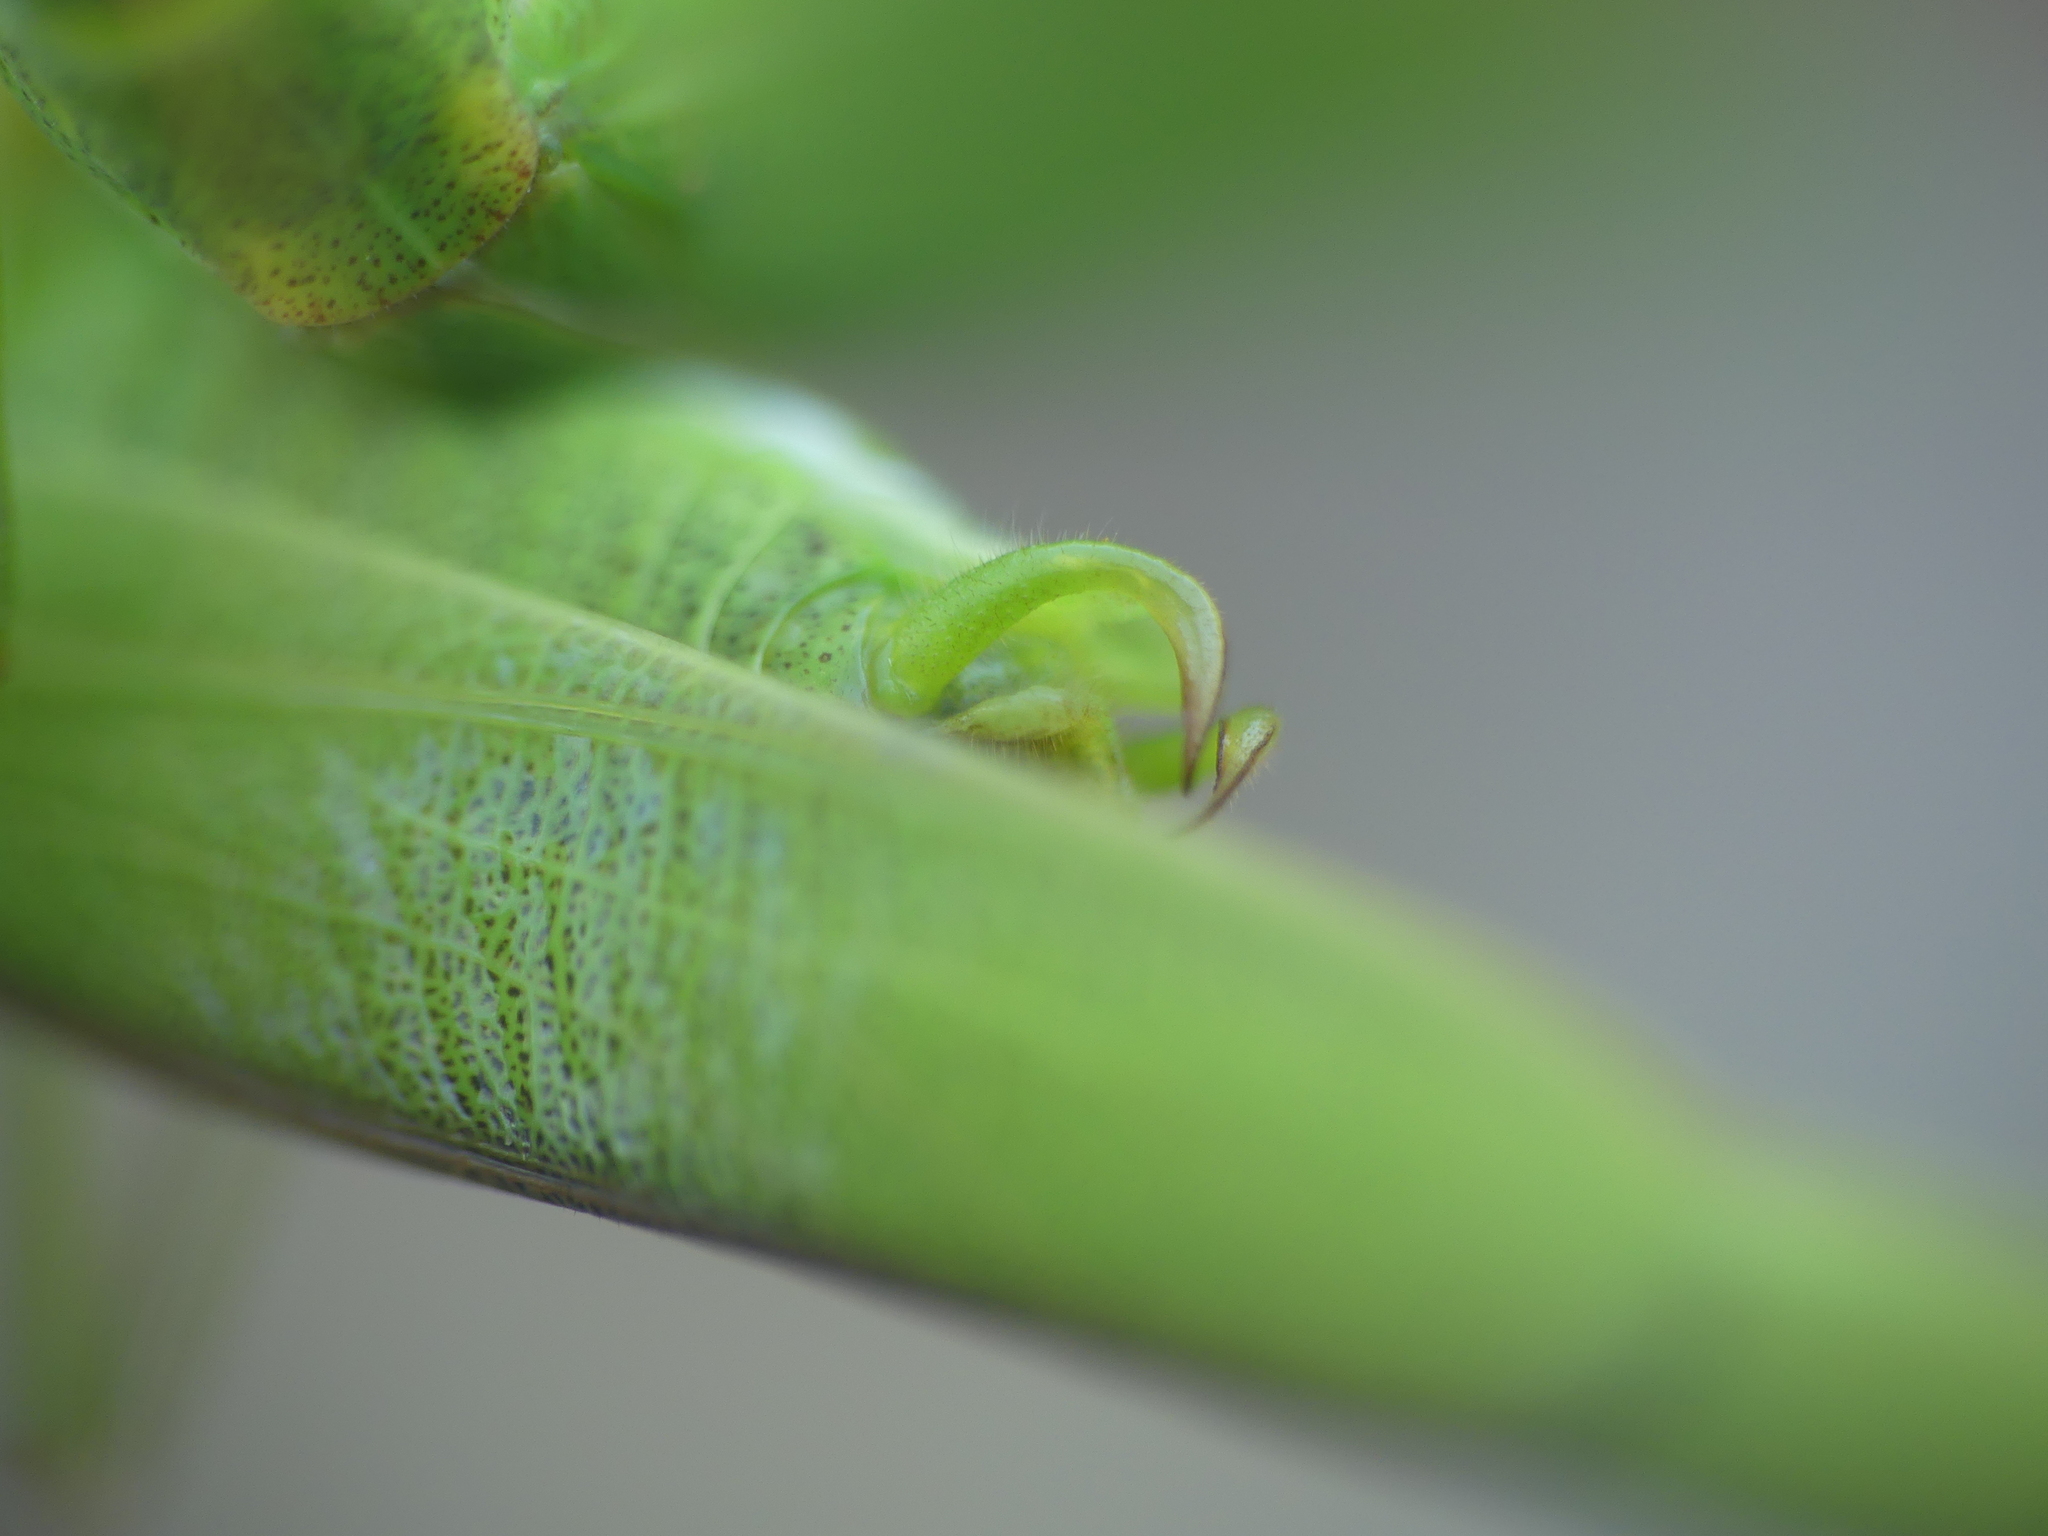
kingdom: Animalia
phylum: Arthropoda
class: Insecta
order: Orthoptera
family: Tettigoniidae
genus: Phaneroptera
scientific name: Phaneroptera nana
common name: Southern sickle bush-cricket
